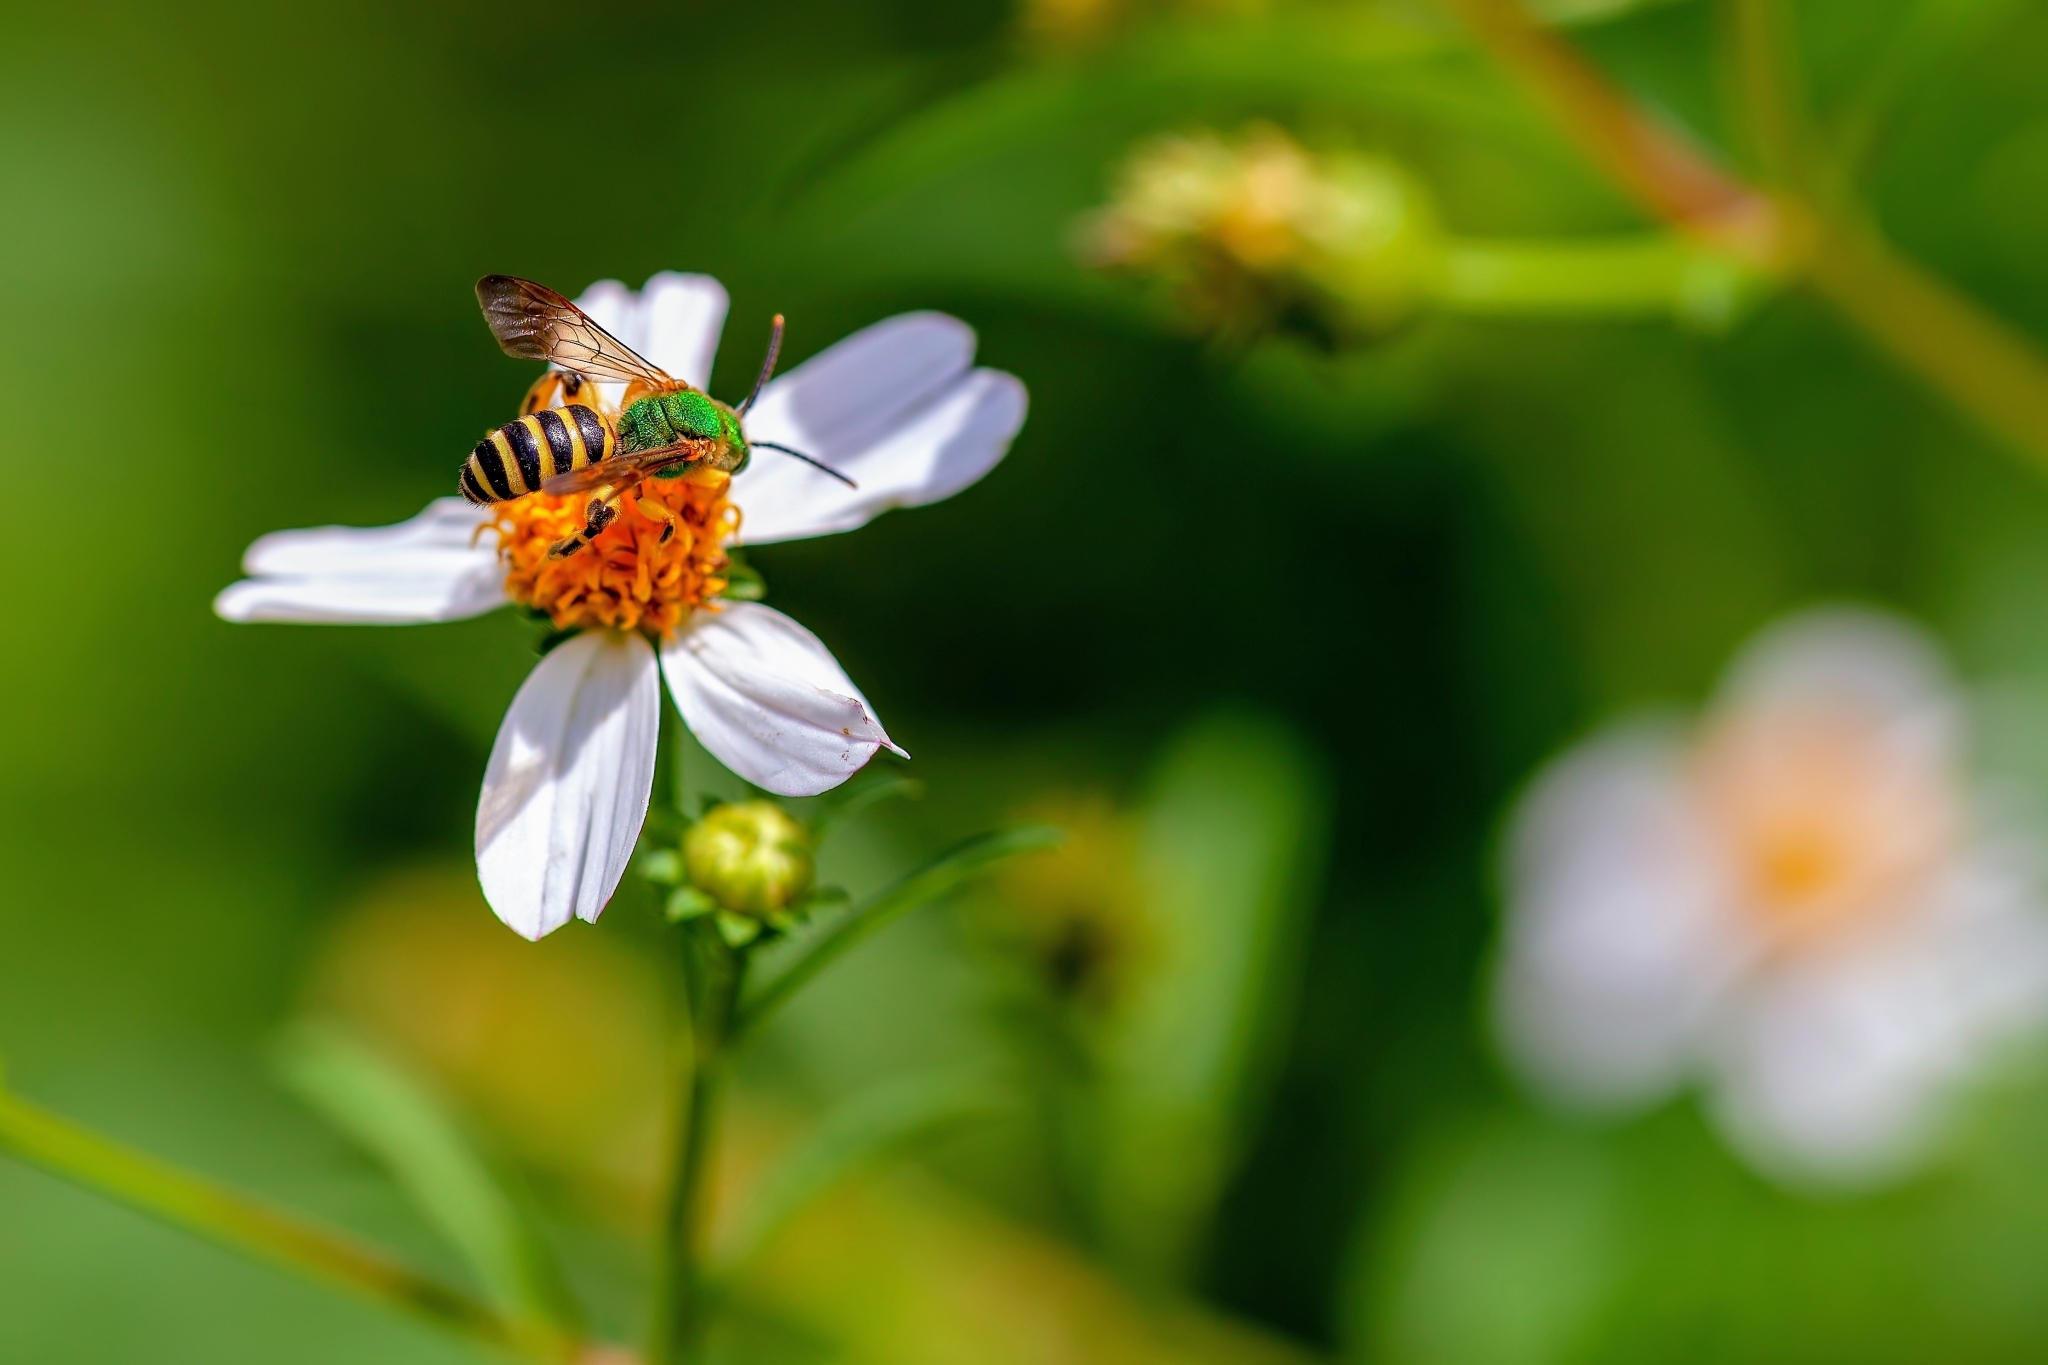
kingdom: Animalia
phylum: Arthropoda
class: Insecta
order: Hymenoptera
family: Halictidae
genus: Agapostemon
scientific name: Agapostemon splendens
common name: Brown-winged striped sweat bee
